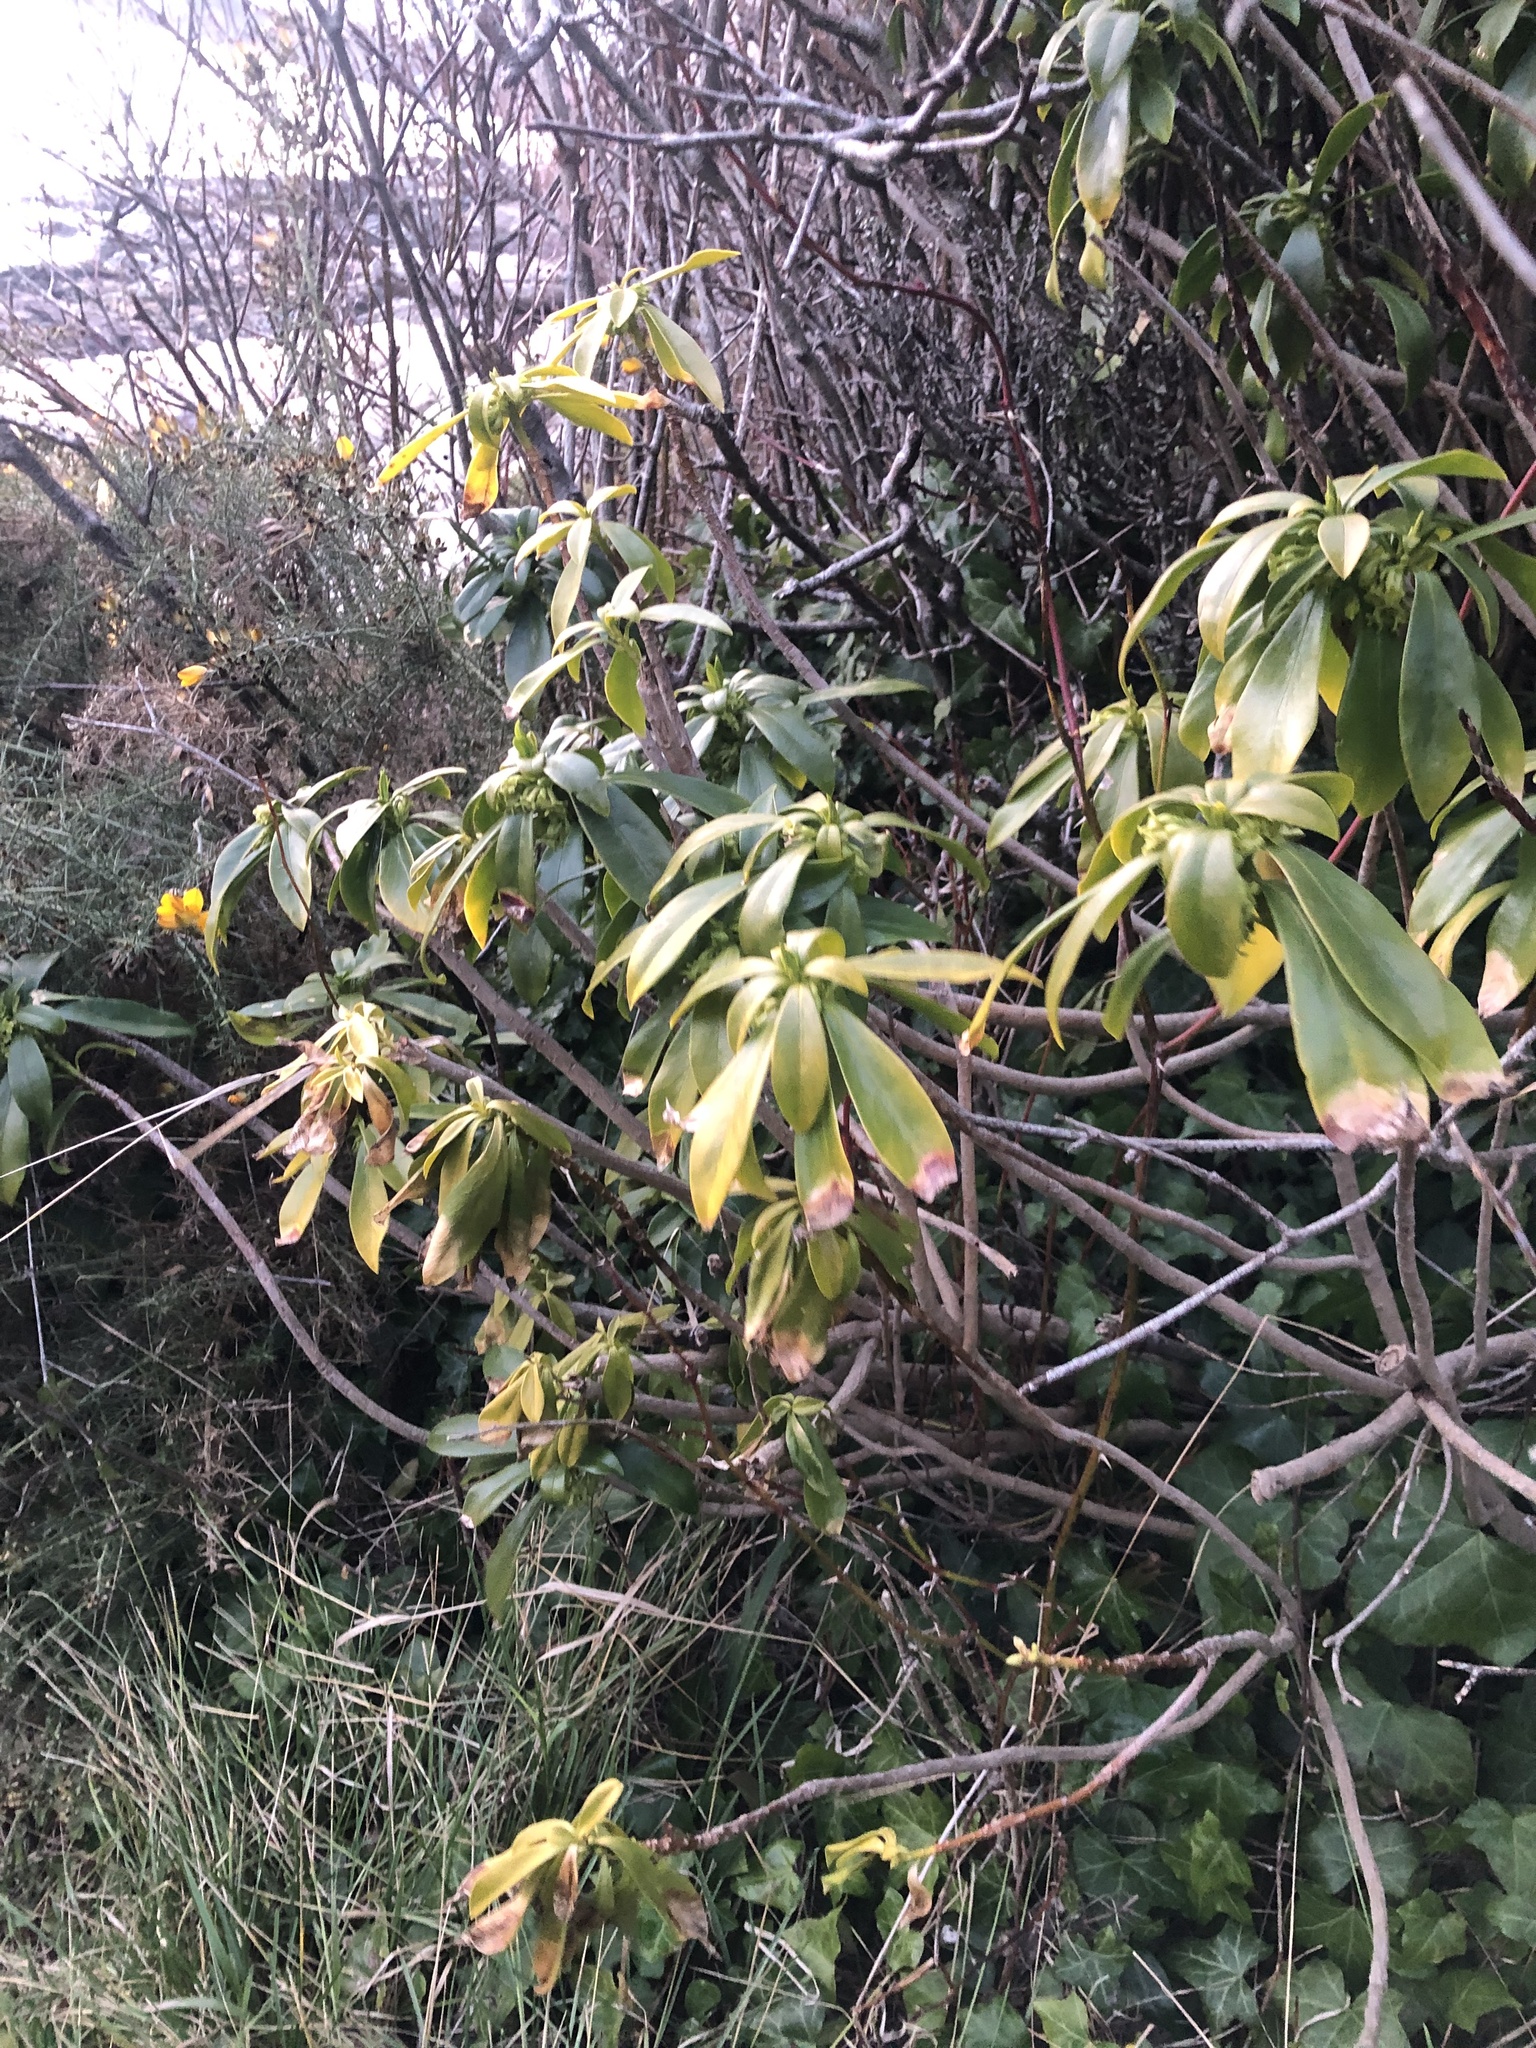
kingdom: Plantae
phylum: Tracheophyta
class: Magnoliopsida
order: Malvales
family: Thymelaeaceae
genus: Daphne
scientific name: Daphne laureola
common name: Spurge-laurel
